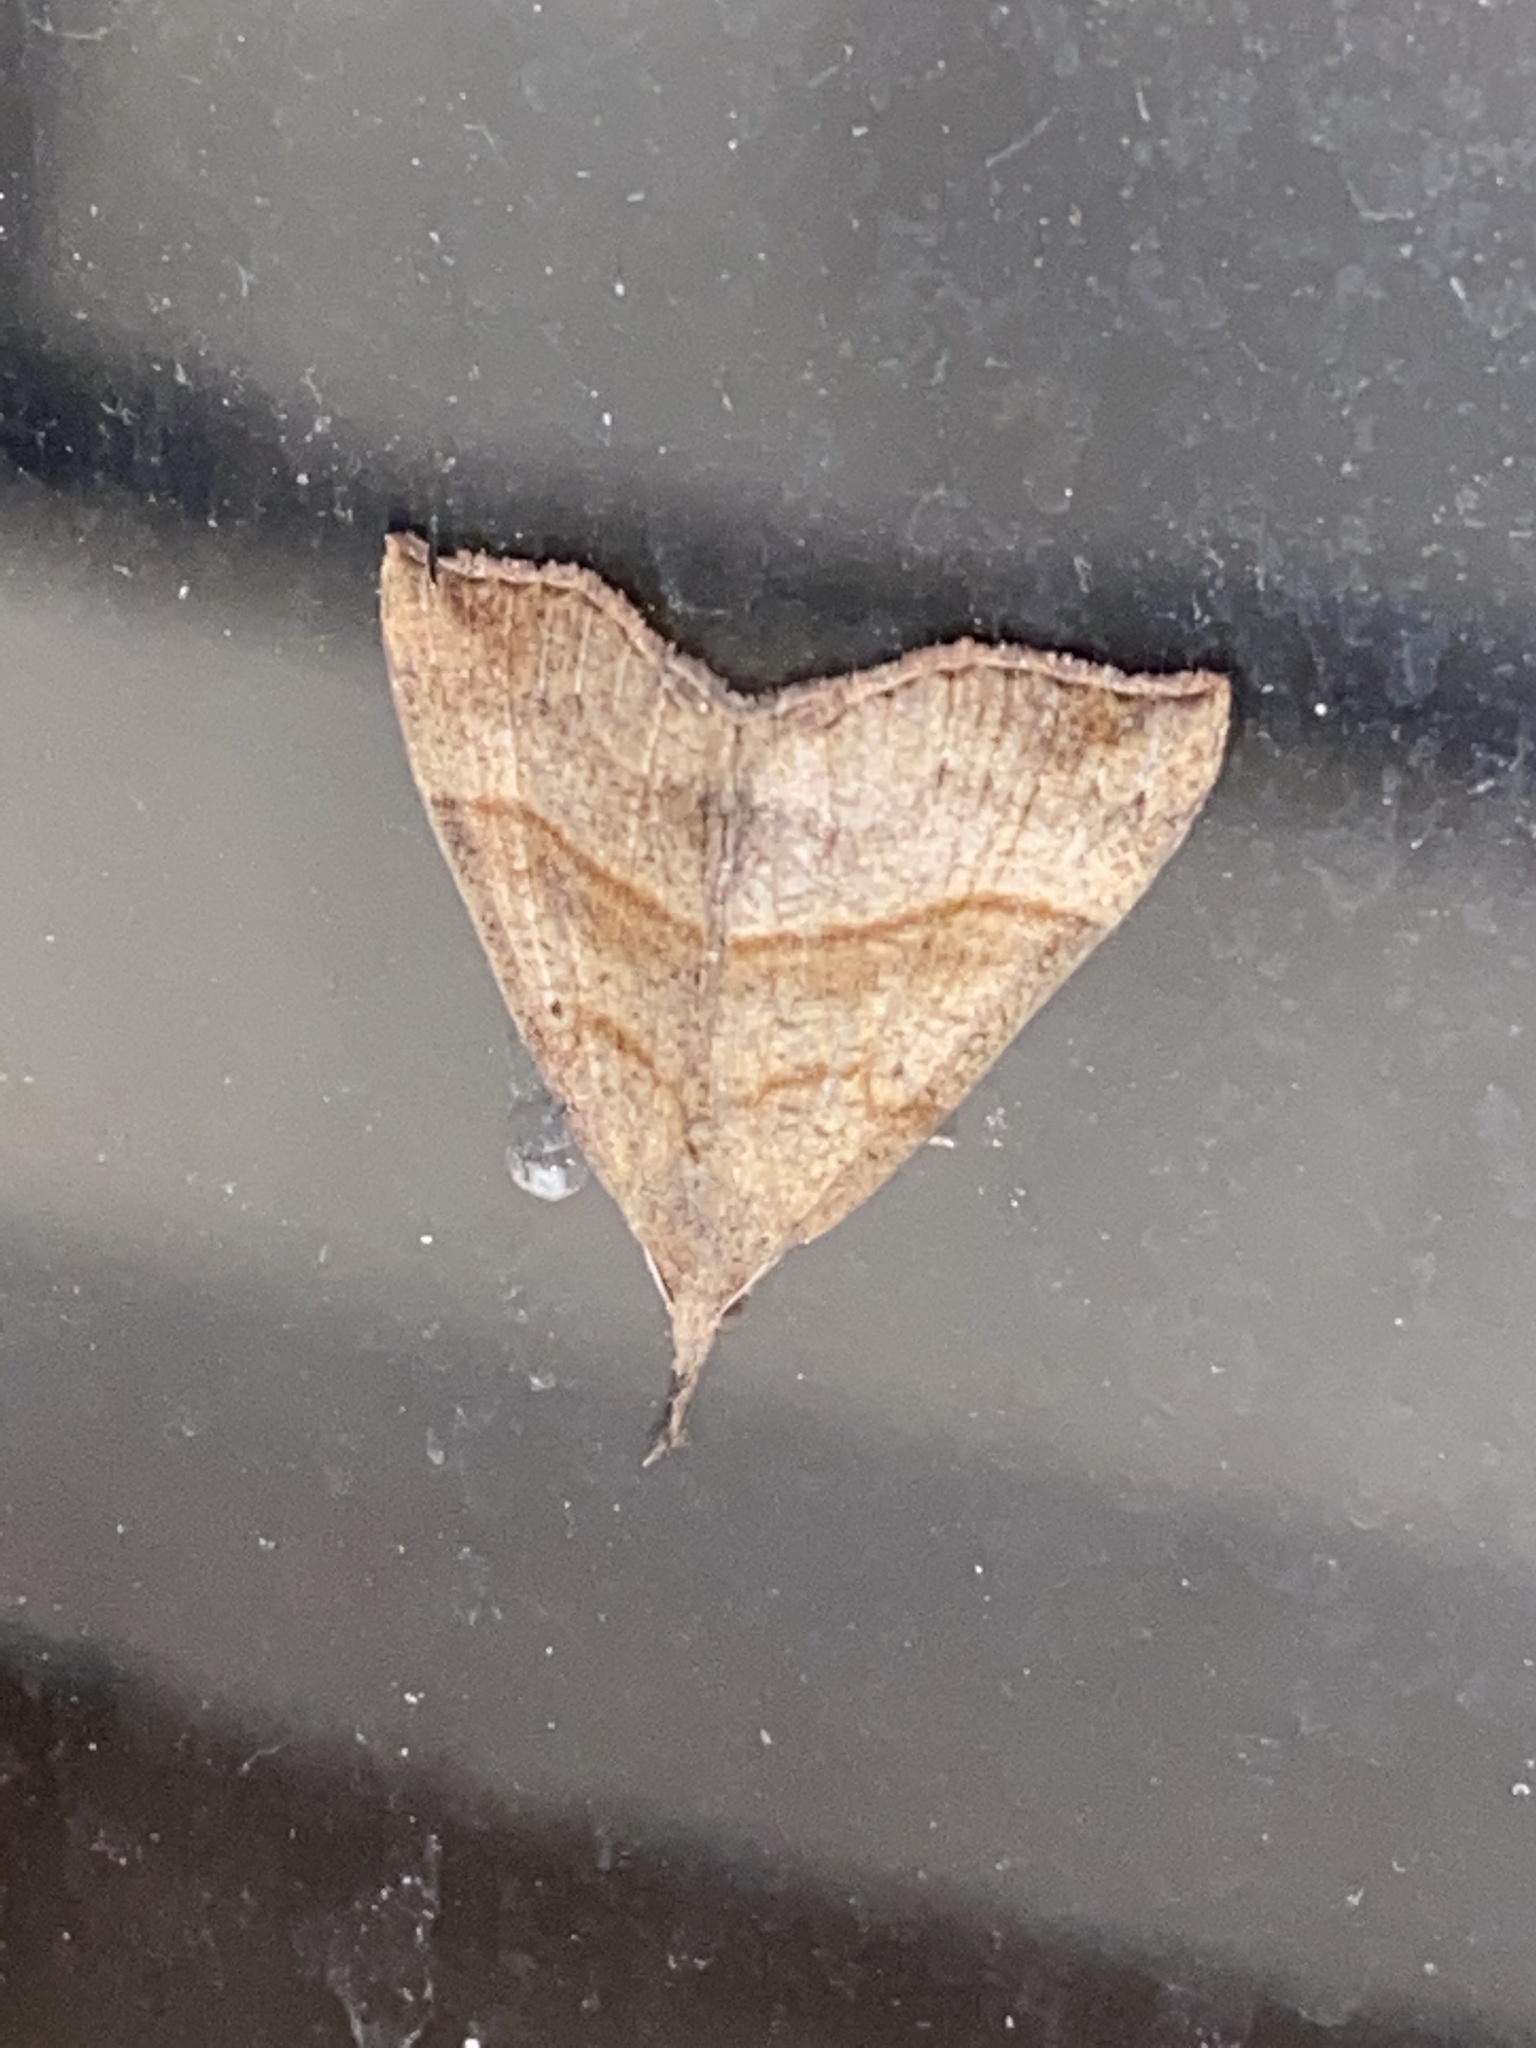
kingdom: Animalia
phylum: Arthropoda
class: Insecta
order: Lepidoptera
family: Erebidae
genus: Hypena
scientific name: Hypena proboscidalis
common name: Snout
